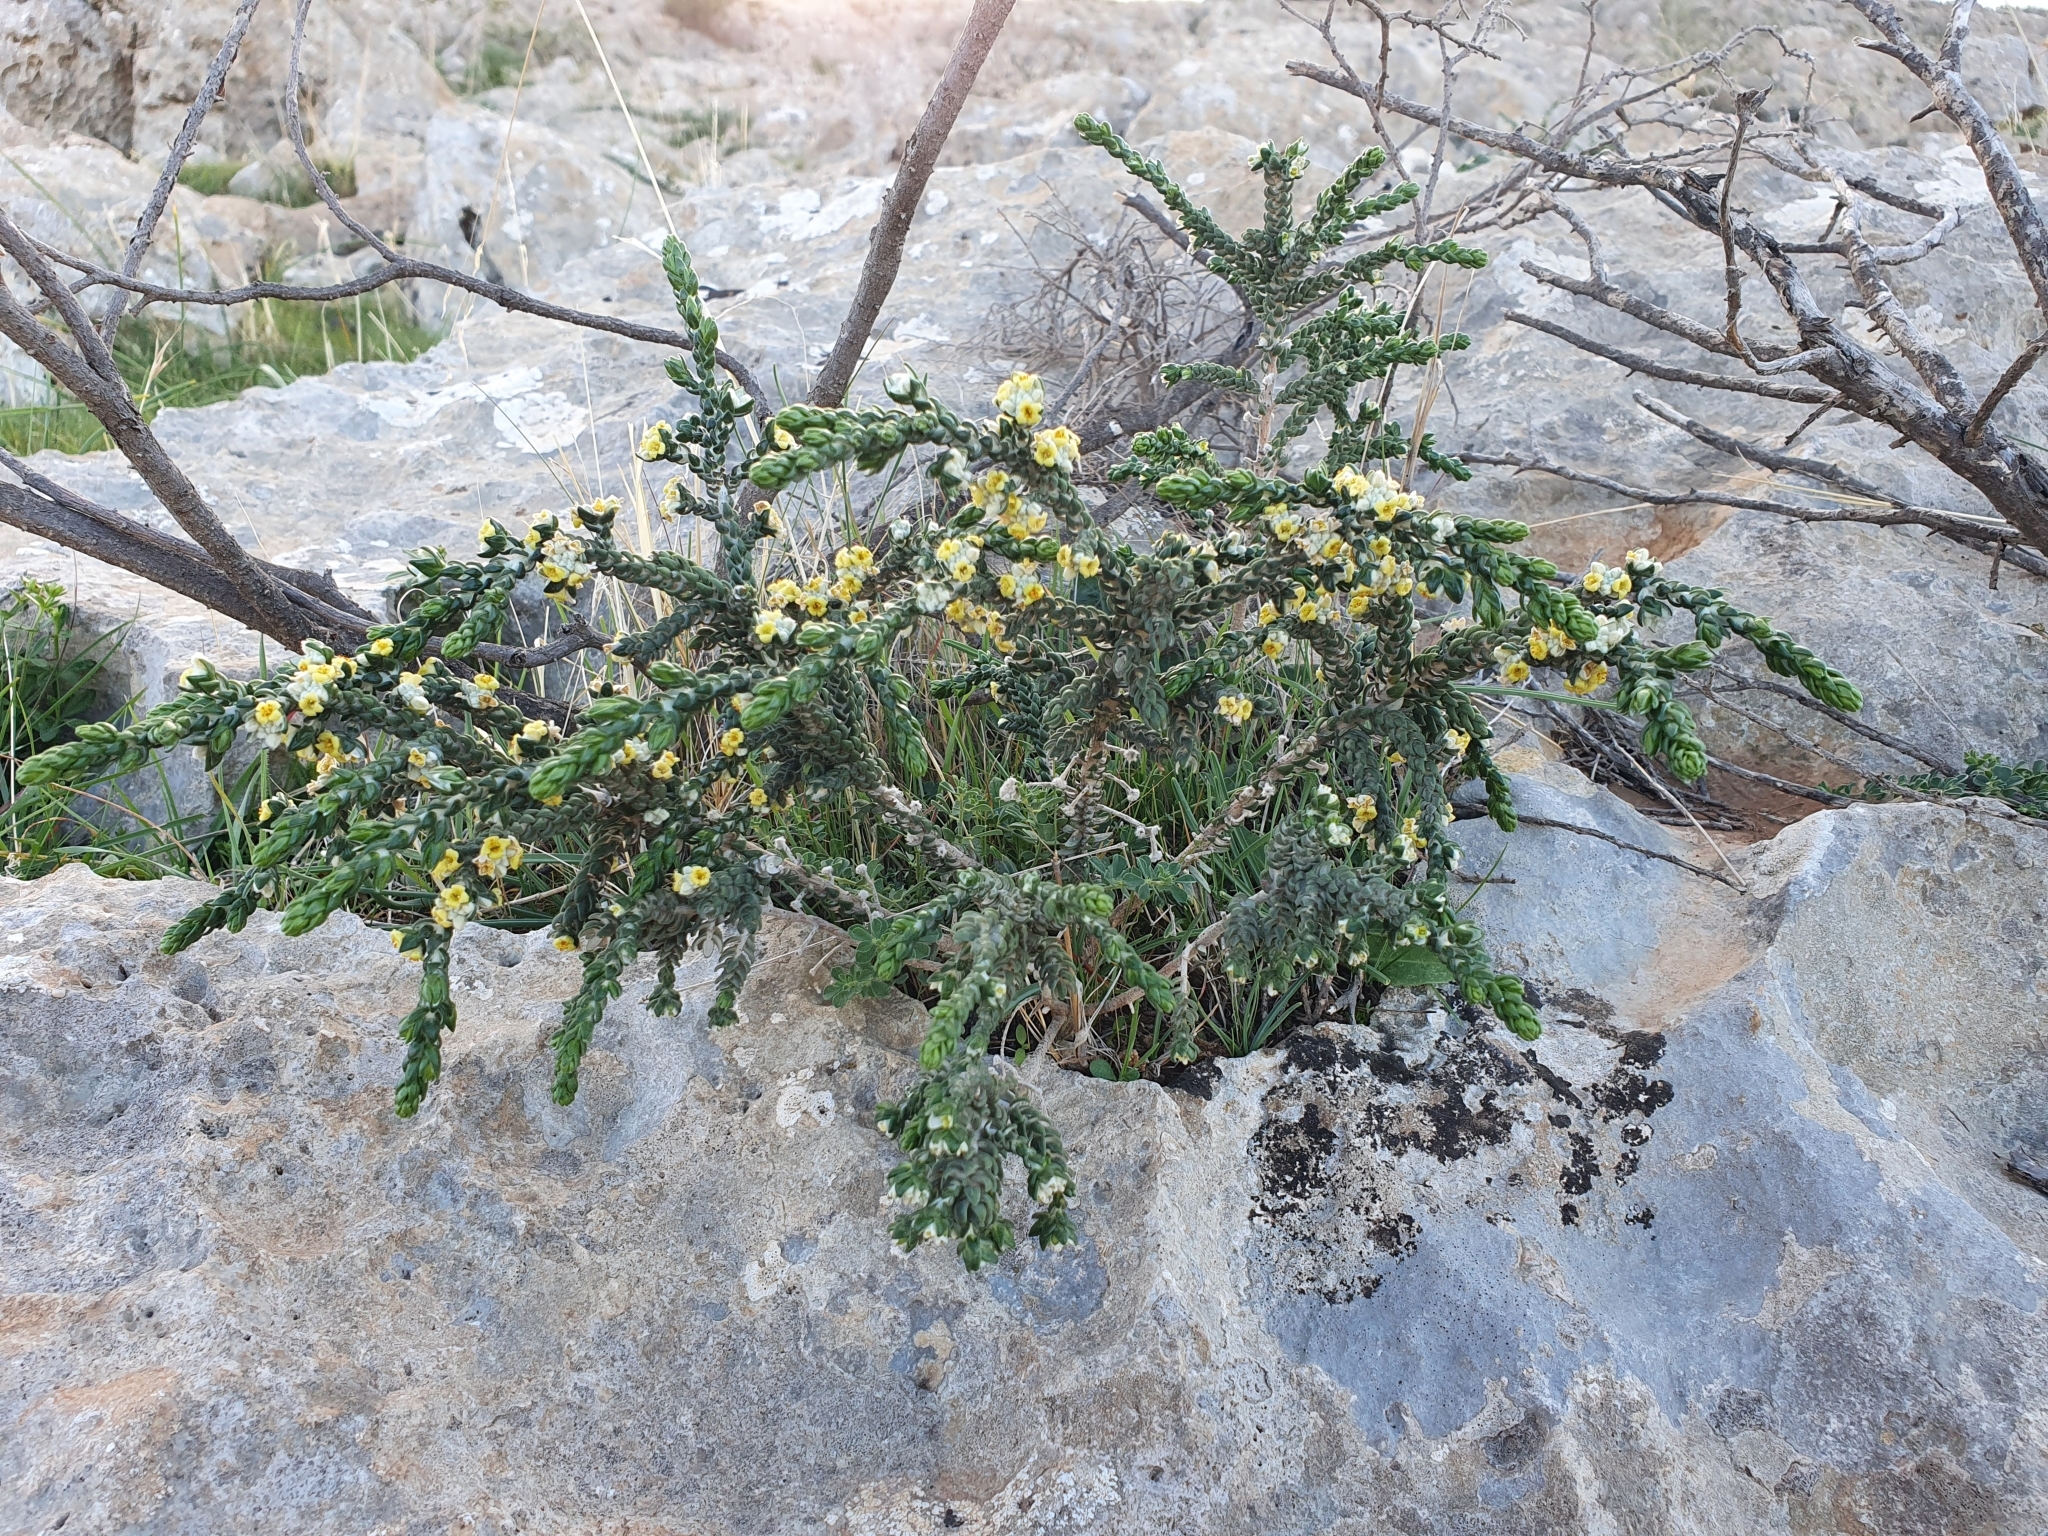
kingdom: Plantae
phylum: Tracheophyta
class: Magnoliopsida
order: Malvales
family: Thymelaeaceae
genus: Thymelaea
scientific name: Thymelaea hirsuta
